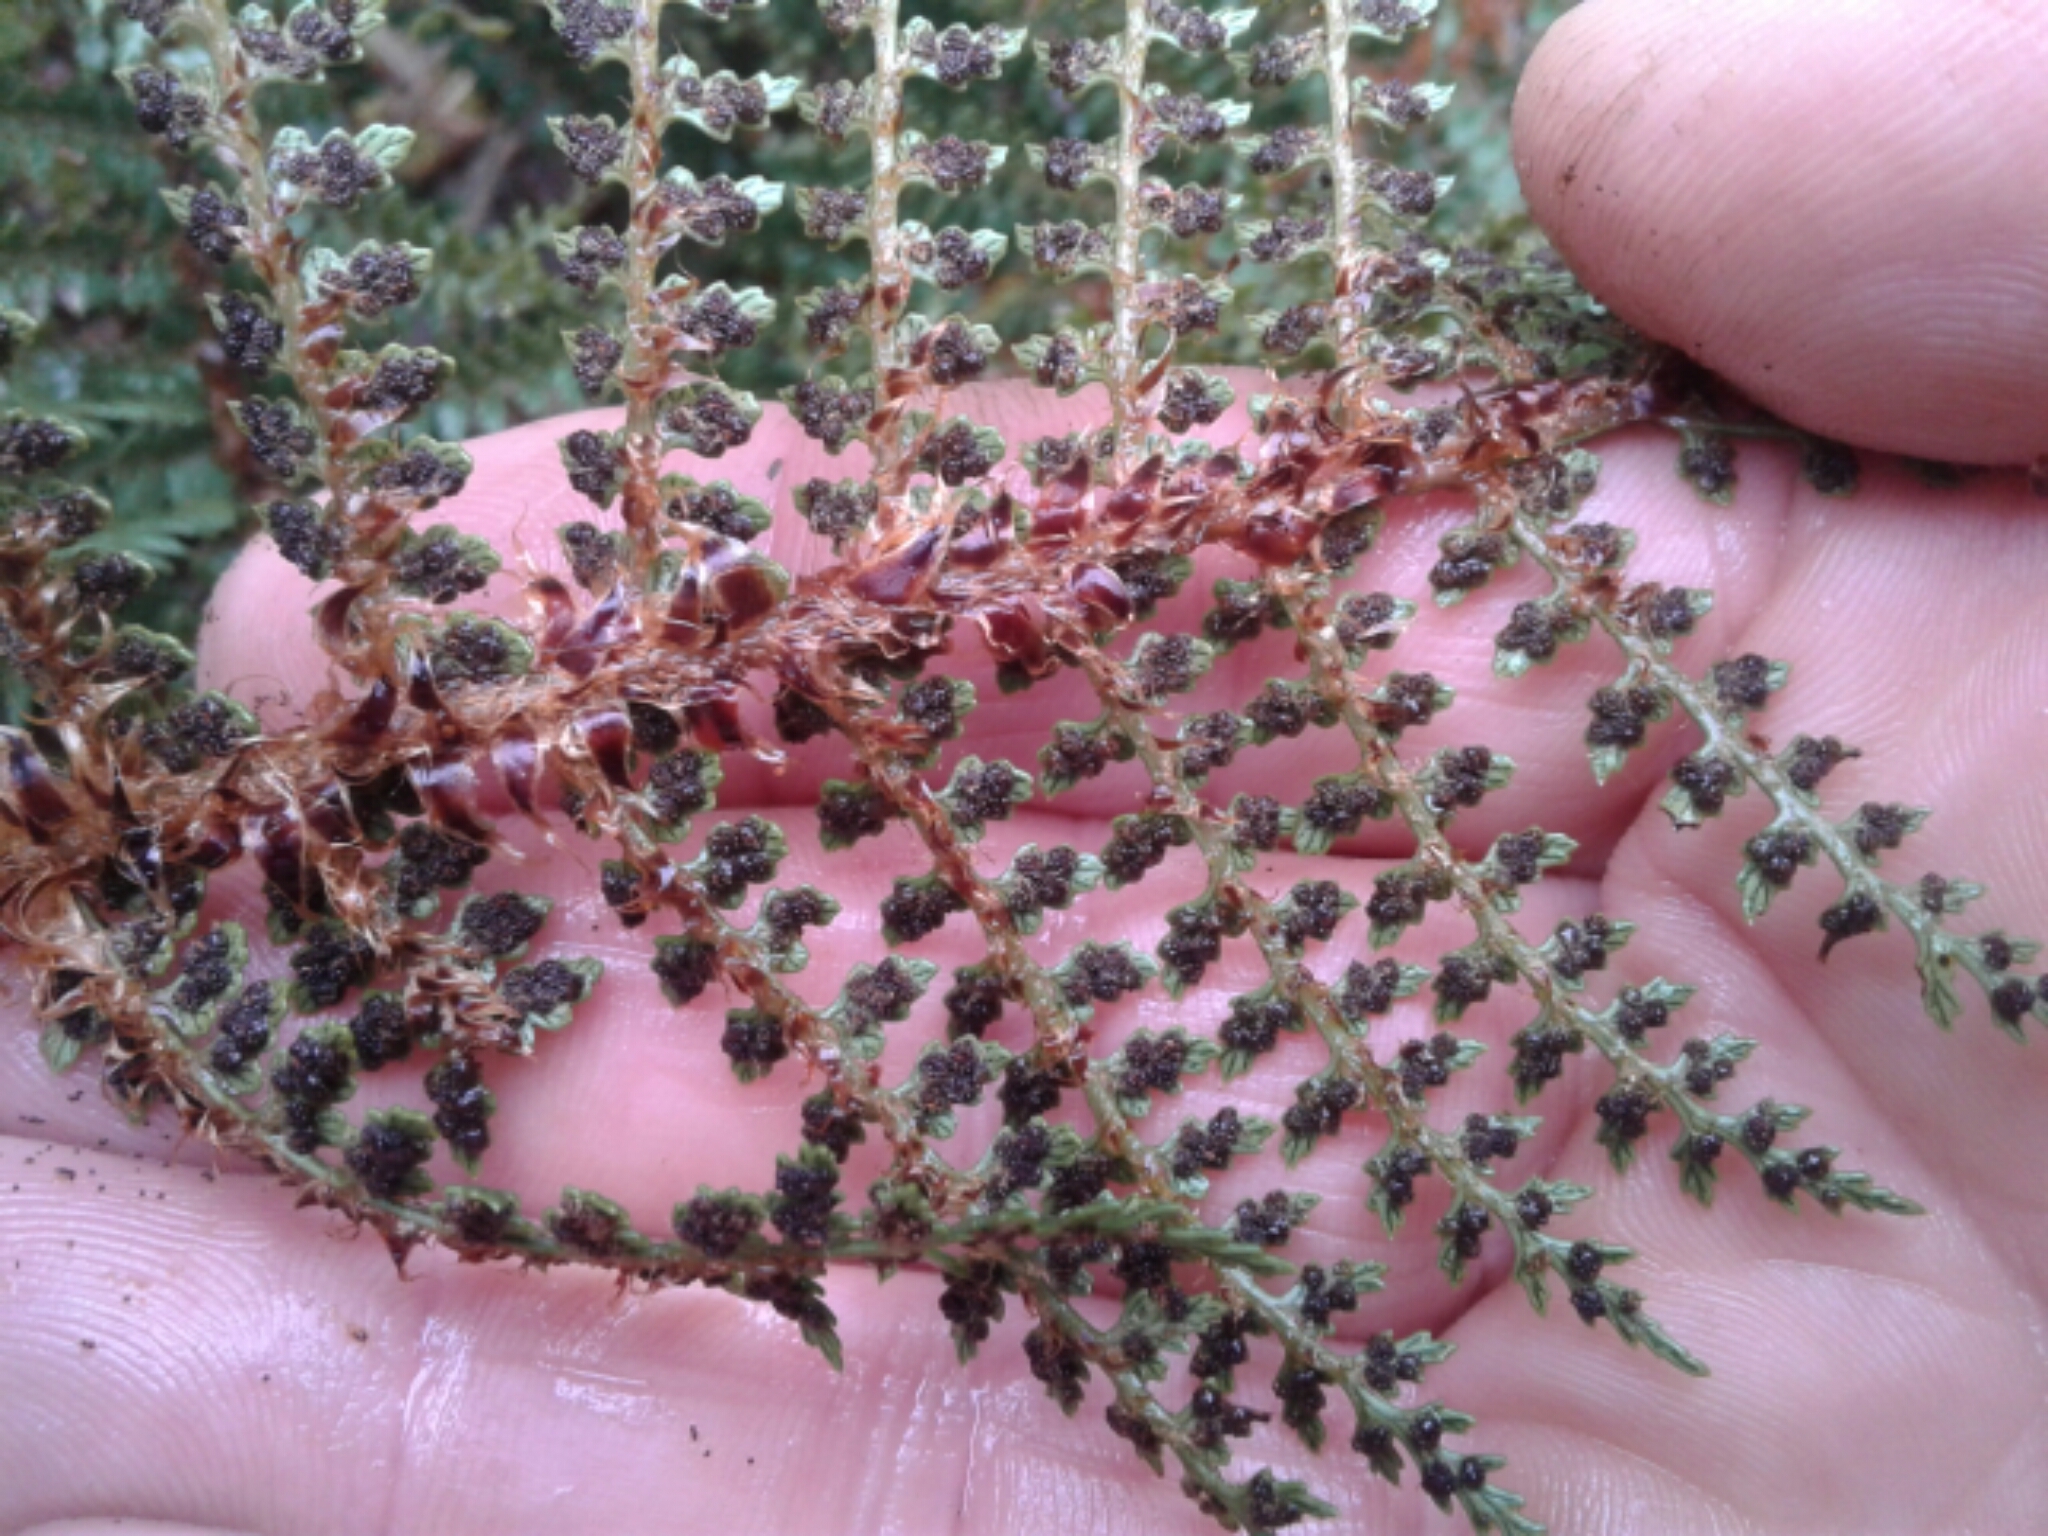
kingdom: Plantae
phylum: Tracheophyta
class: Polypodiopsida
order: Polypodiales
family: Dryopteridaceae
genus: Polystichum
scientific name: Polystichum vestitum
